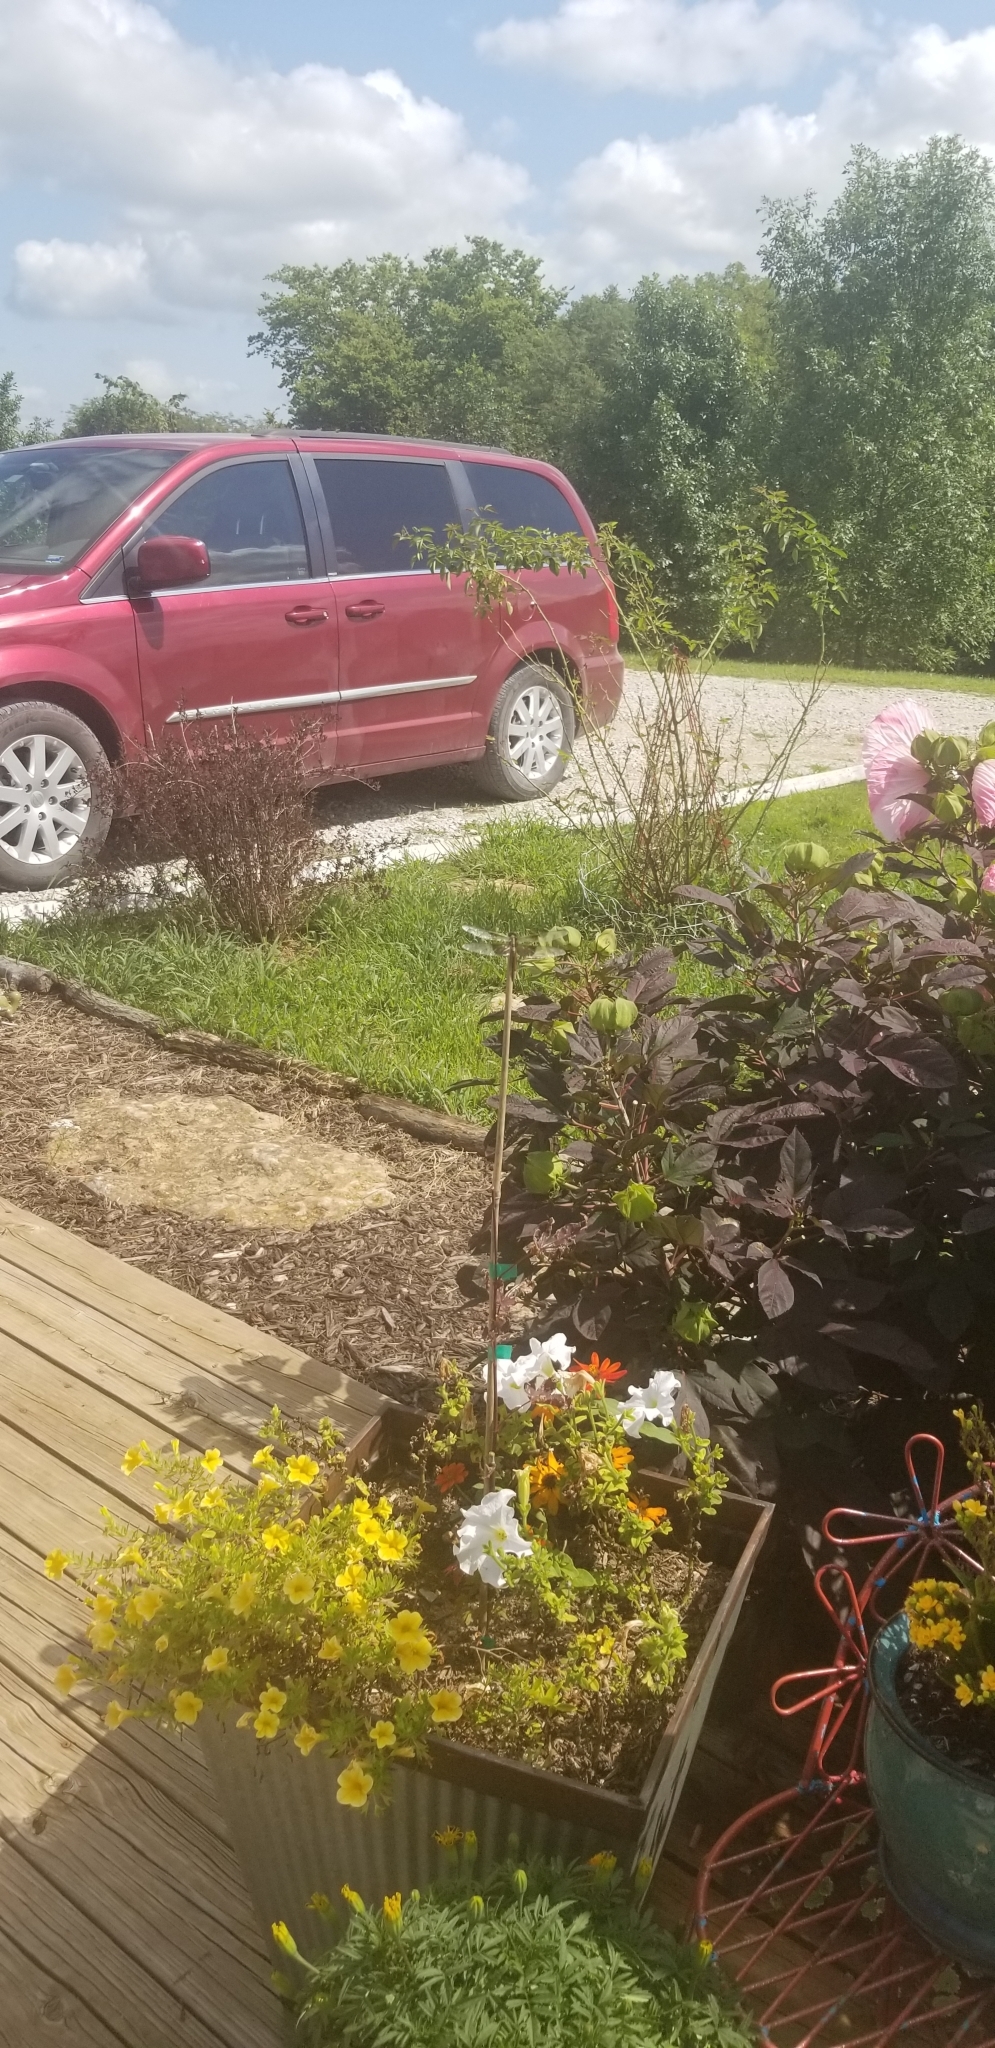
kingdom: Animalia
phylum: Arthropoda
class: Insecta
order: Odonata
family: Libellulidae
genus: Libellula
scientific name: Libellula luctuosa
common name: Widow skimmer
